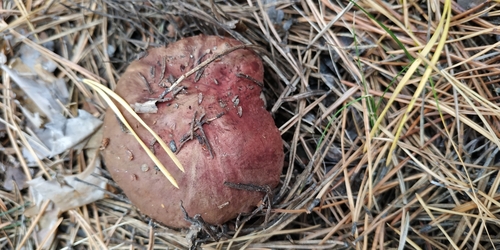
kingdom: Fungi
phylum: Basidiomycota
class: Agaricomycetes
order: Boletales
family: Boletaceae
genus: Boletus
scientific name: Boletus pinophilus
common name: Pine bolete
